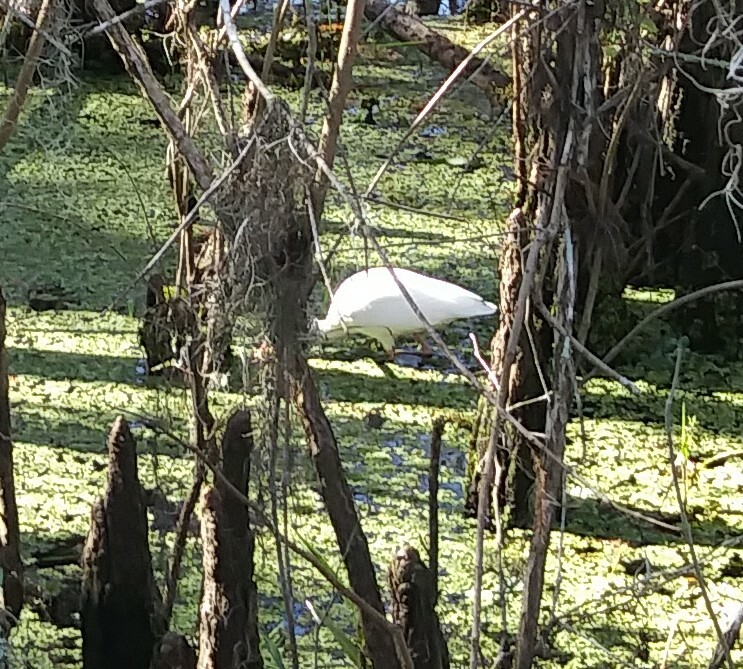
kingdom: Animalia
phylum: Chordata
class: Aves
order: Pelecaniformes
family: Threskiornithidae
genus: Eudocimus
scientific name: Eudocimus albus
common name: White ibis
